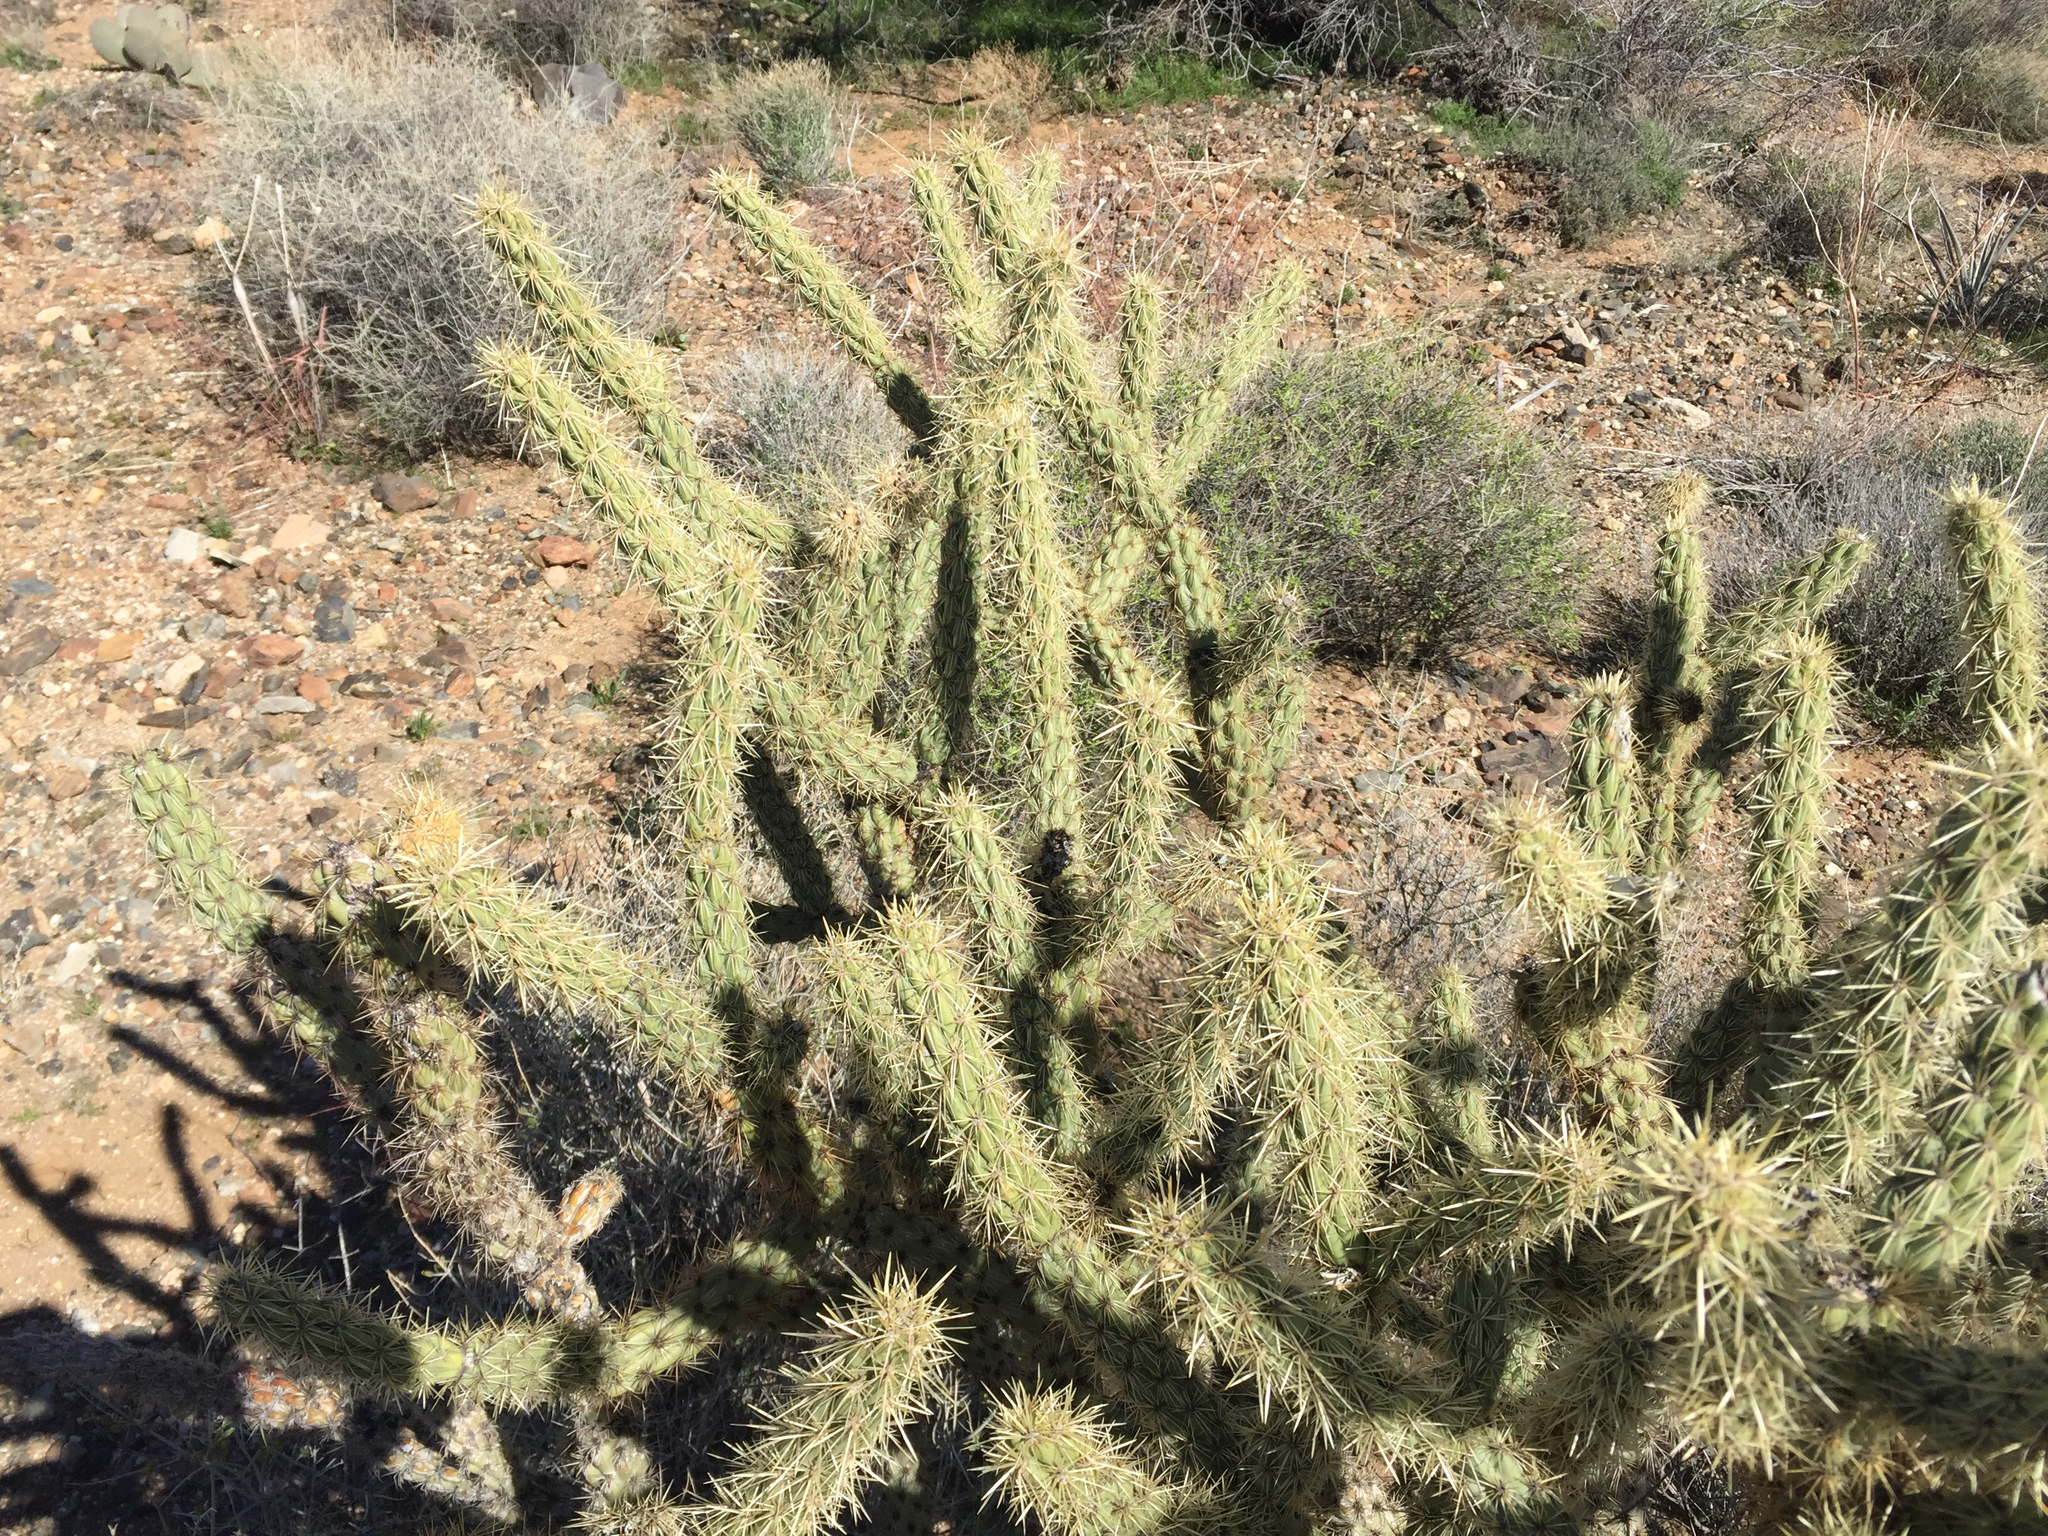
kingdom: Plantae
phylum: Tracheophyta
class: Magnoliopsida
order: Caryophyllales
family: Cactaceae
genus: Cylindropuntia
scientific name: Cylindropuntia acanthocarpa
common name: Buckhorn cholla
